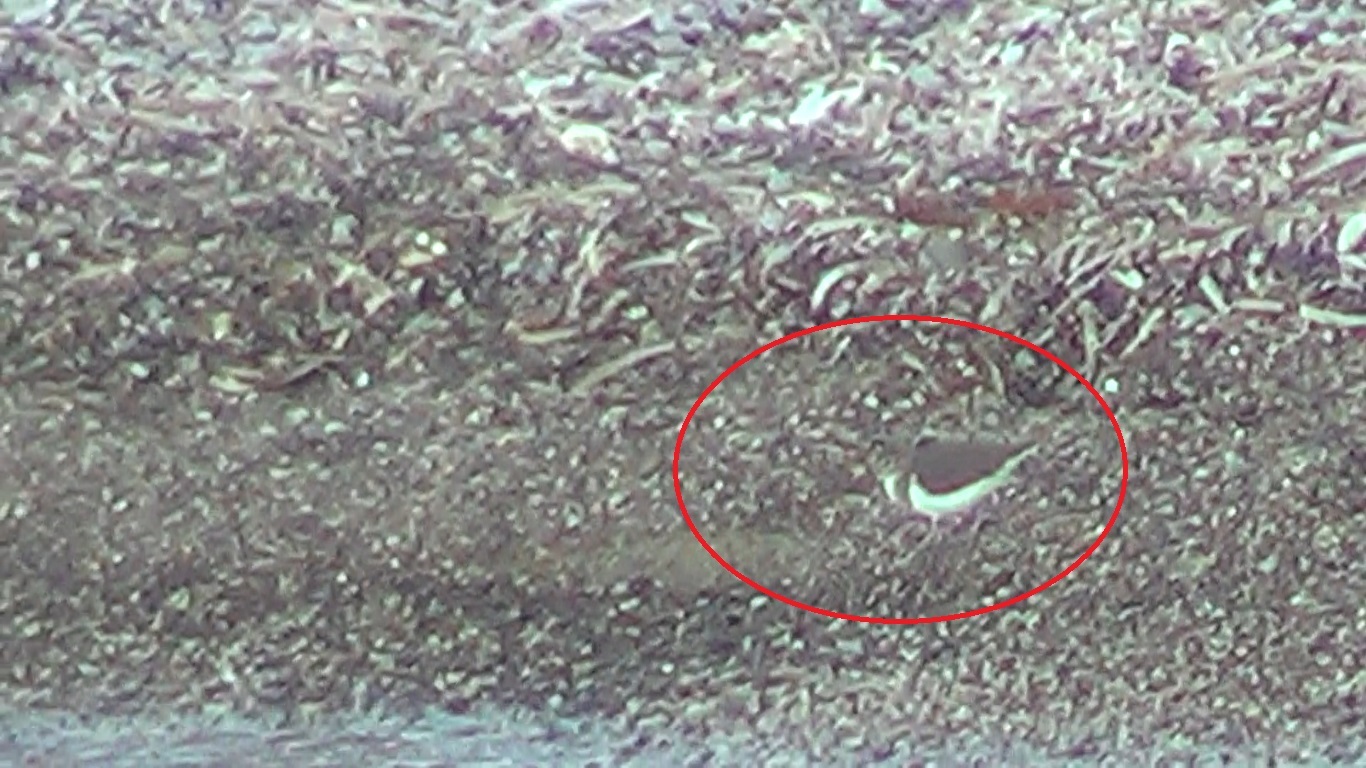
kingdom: Animalia
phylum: Chordata
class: Aves
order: Charadriiformes
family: Scolopacidae
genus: Actitis
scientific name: Actitis hypoleucos
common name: Common sandpiper
